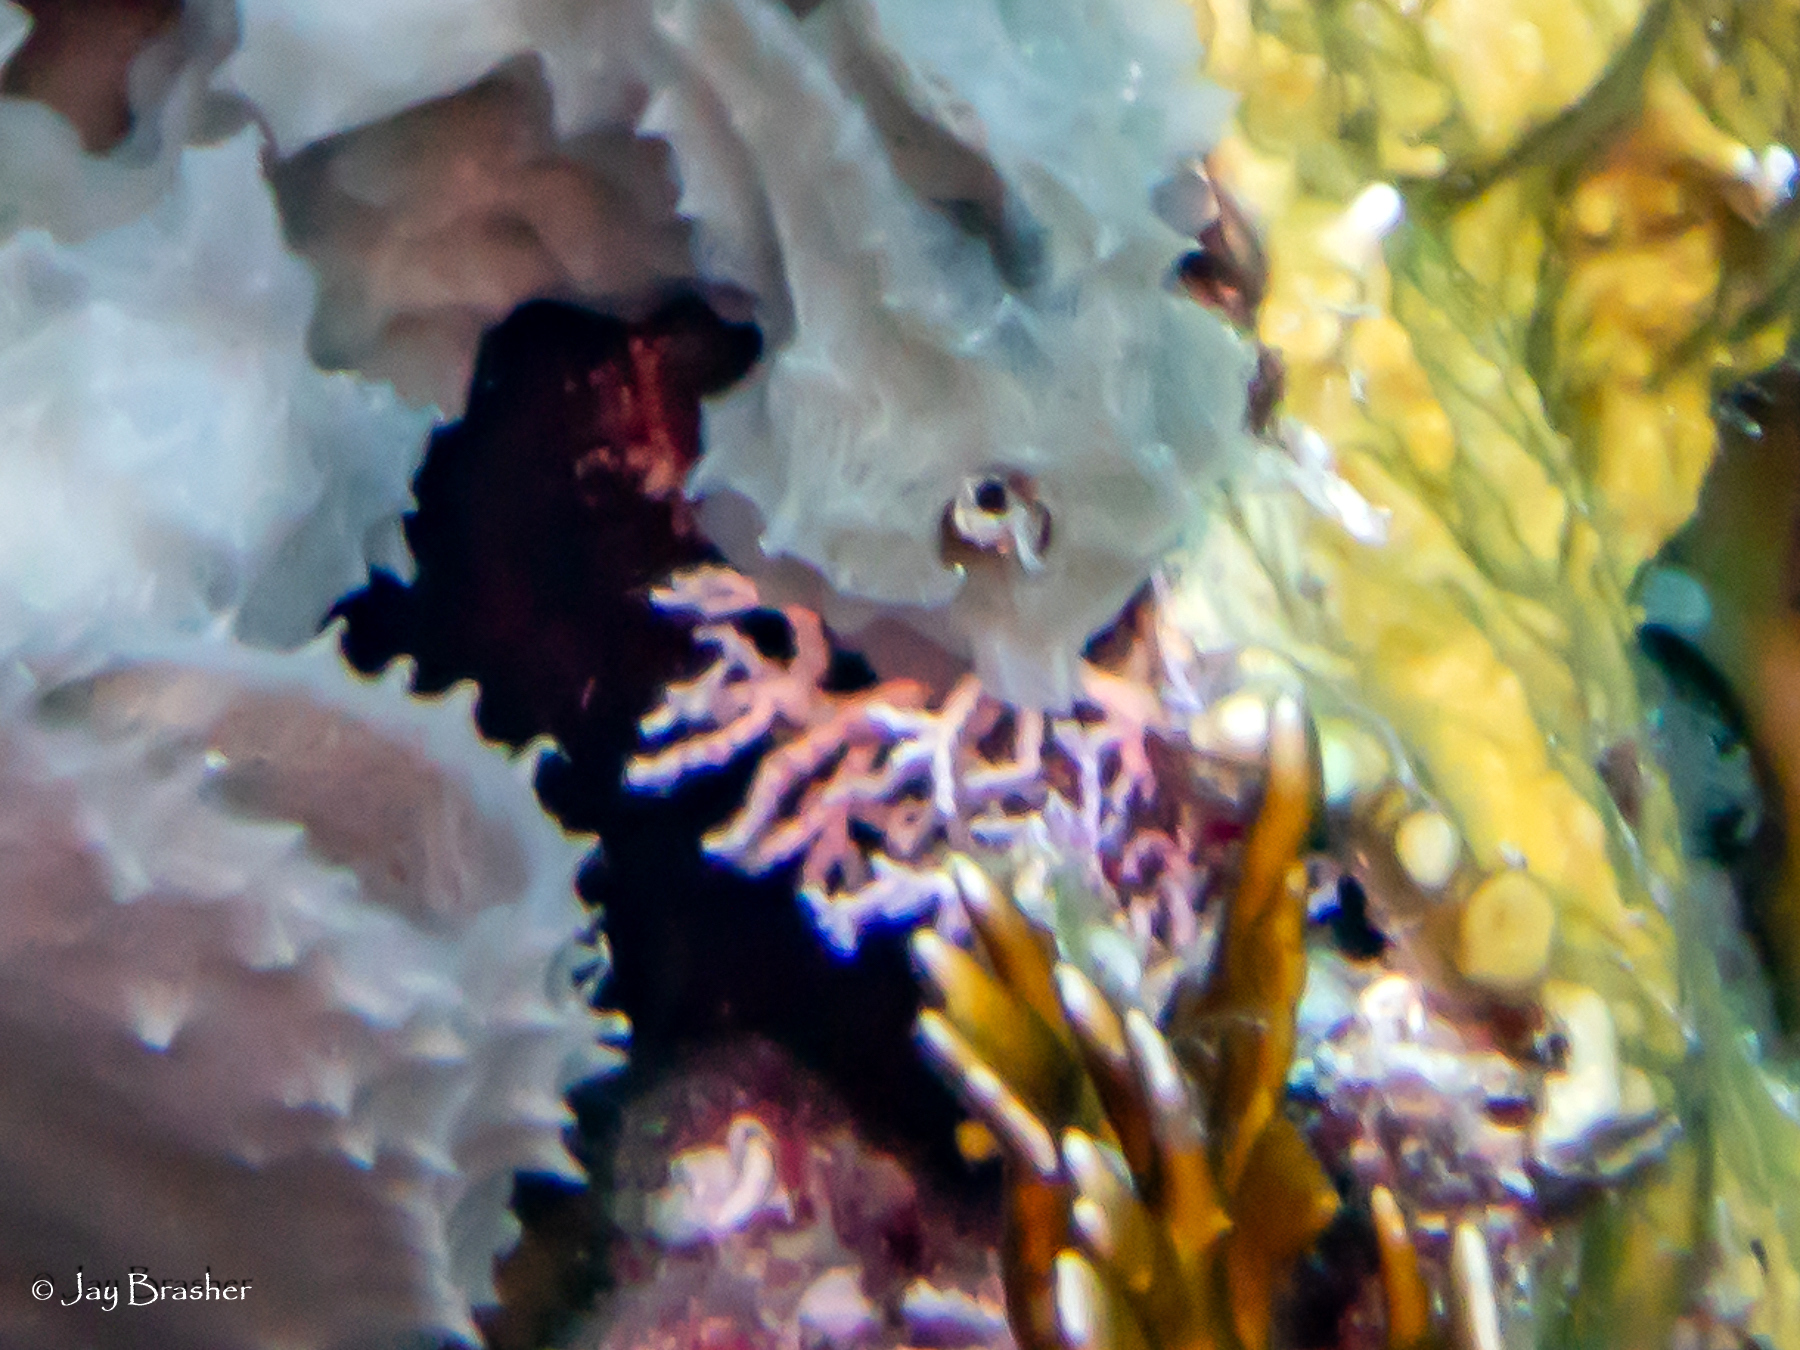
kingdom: Animalia
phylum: Cnidaria
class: Hydrozoa
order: Anthoathecata
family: Stylasteridae
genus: Stylaster
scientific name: Stylaster roseus
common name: Rose lace coral
